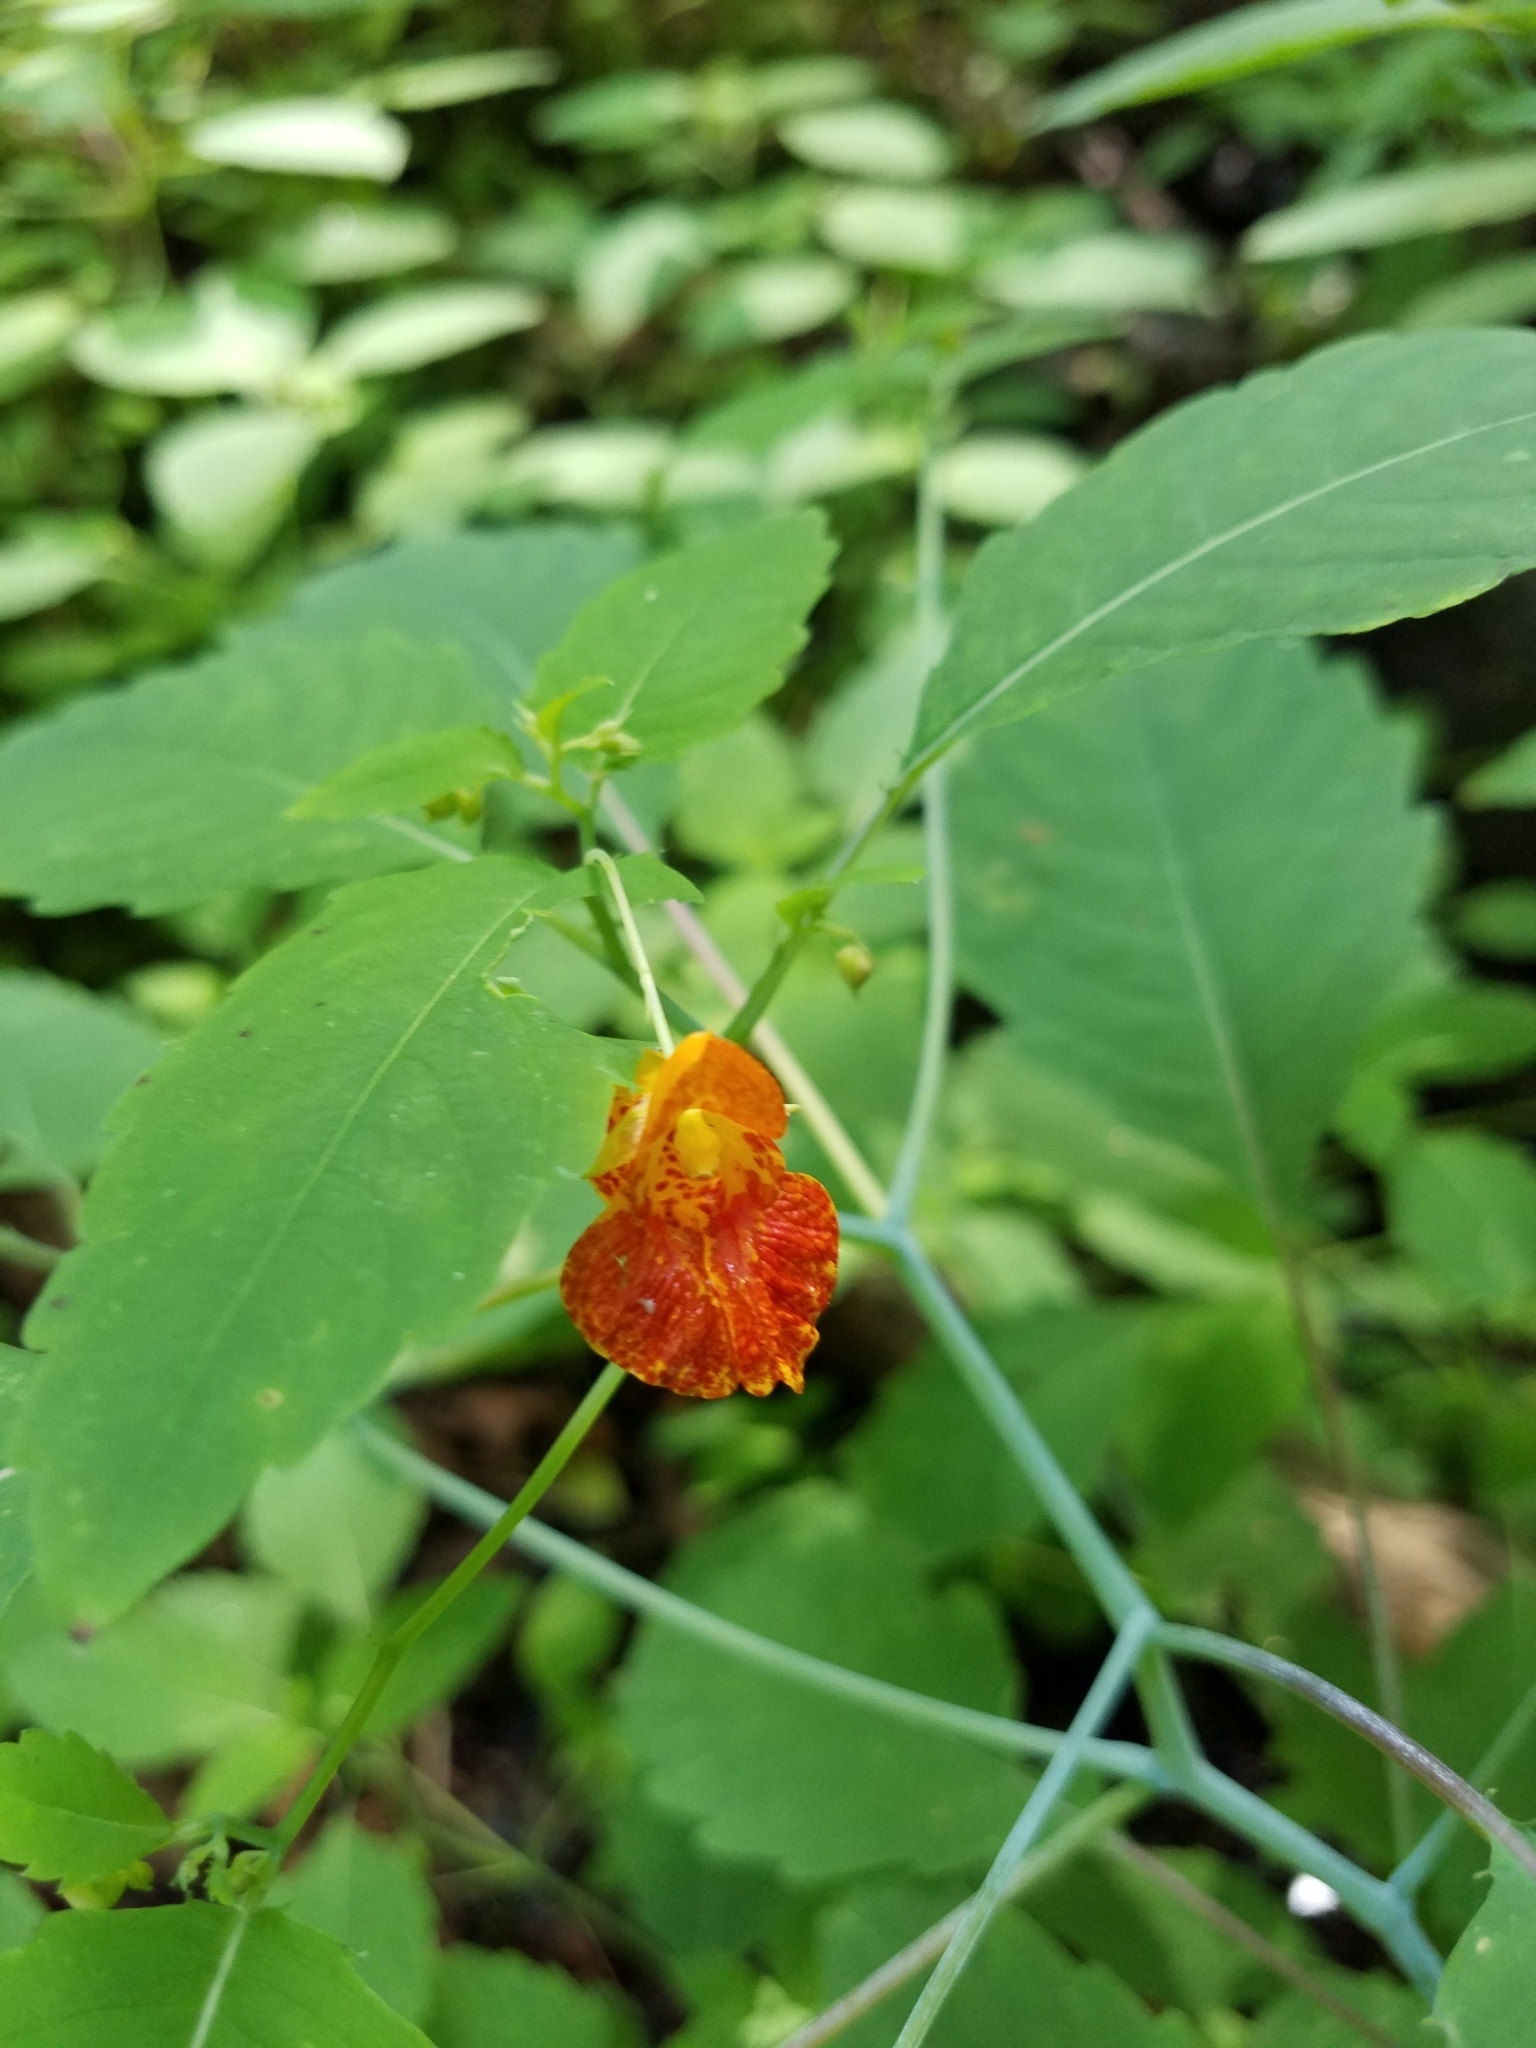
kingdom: Plantae
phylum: Tracheophyta
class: Magnoliopsida
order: Ericales
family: Balsaminaceae
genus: Impatiens
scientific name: Impatiens capensis
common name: Orange balsam
